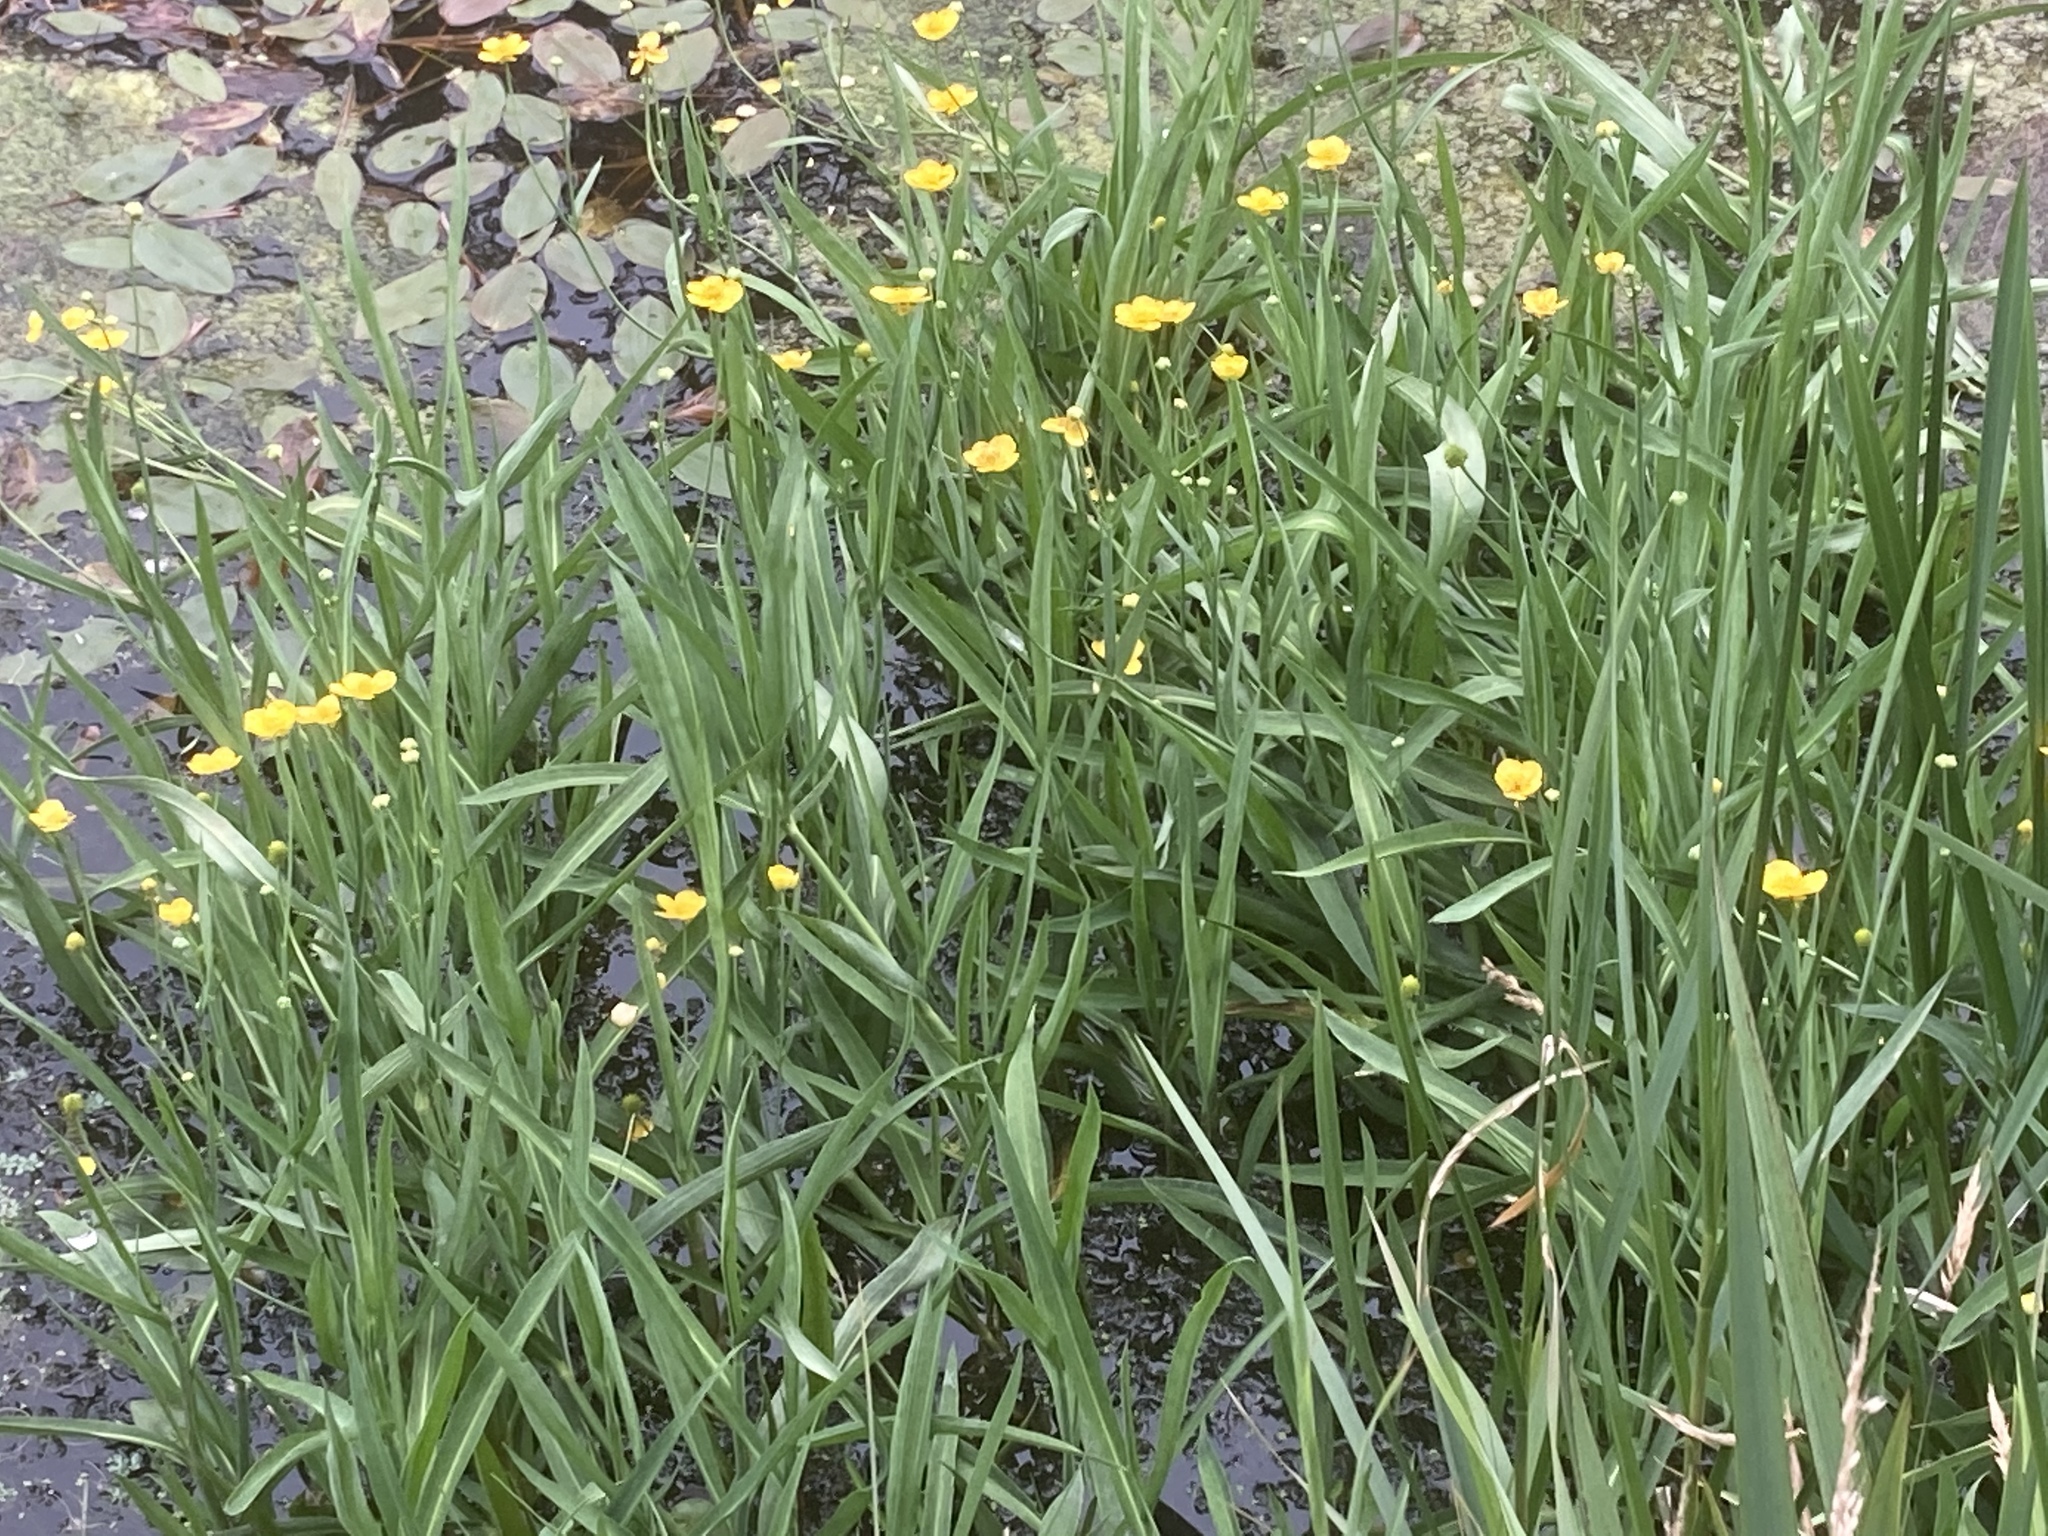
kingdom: Plantae
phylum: Tracheophyta
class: Magnoliopsida
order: Ranunculales
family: Ranunculaceae
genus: Ranunculus
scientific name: Ranunculus lingua
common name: Greater spearwort
